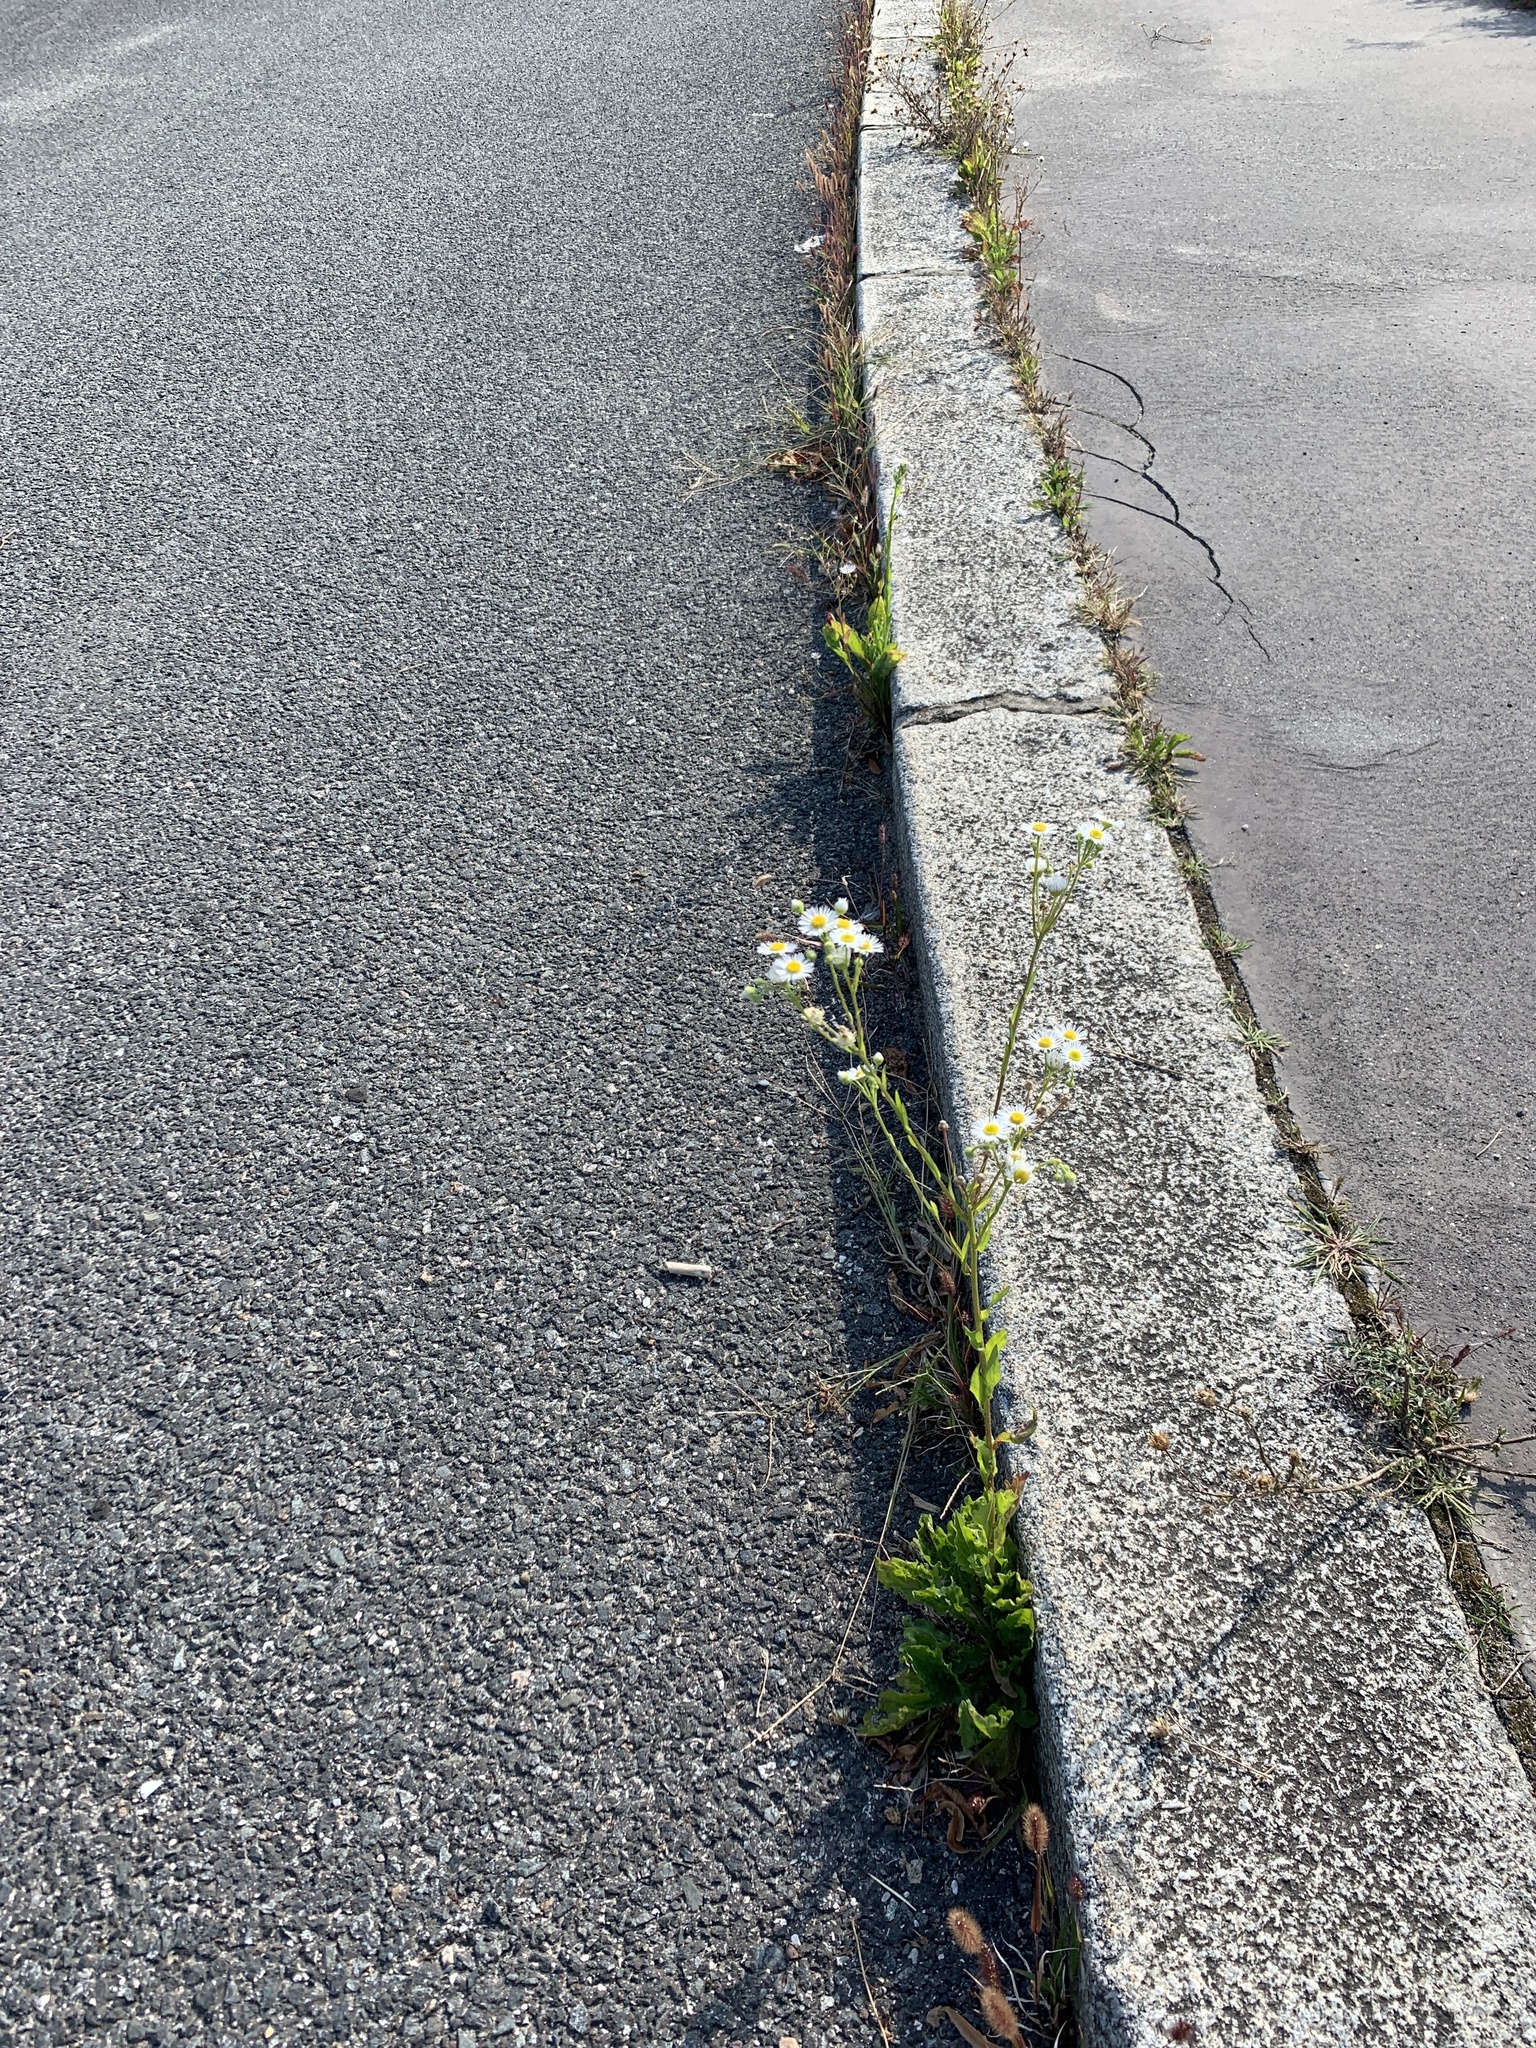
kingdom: Plantae
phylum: Tracheophyta
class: Magnoliopsida
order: Asterales
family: Asteraceae
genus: Erigeron
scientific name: Erigeron annuus
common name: Tall fleabane
